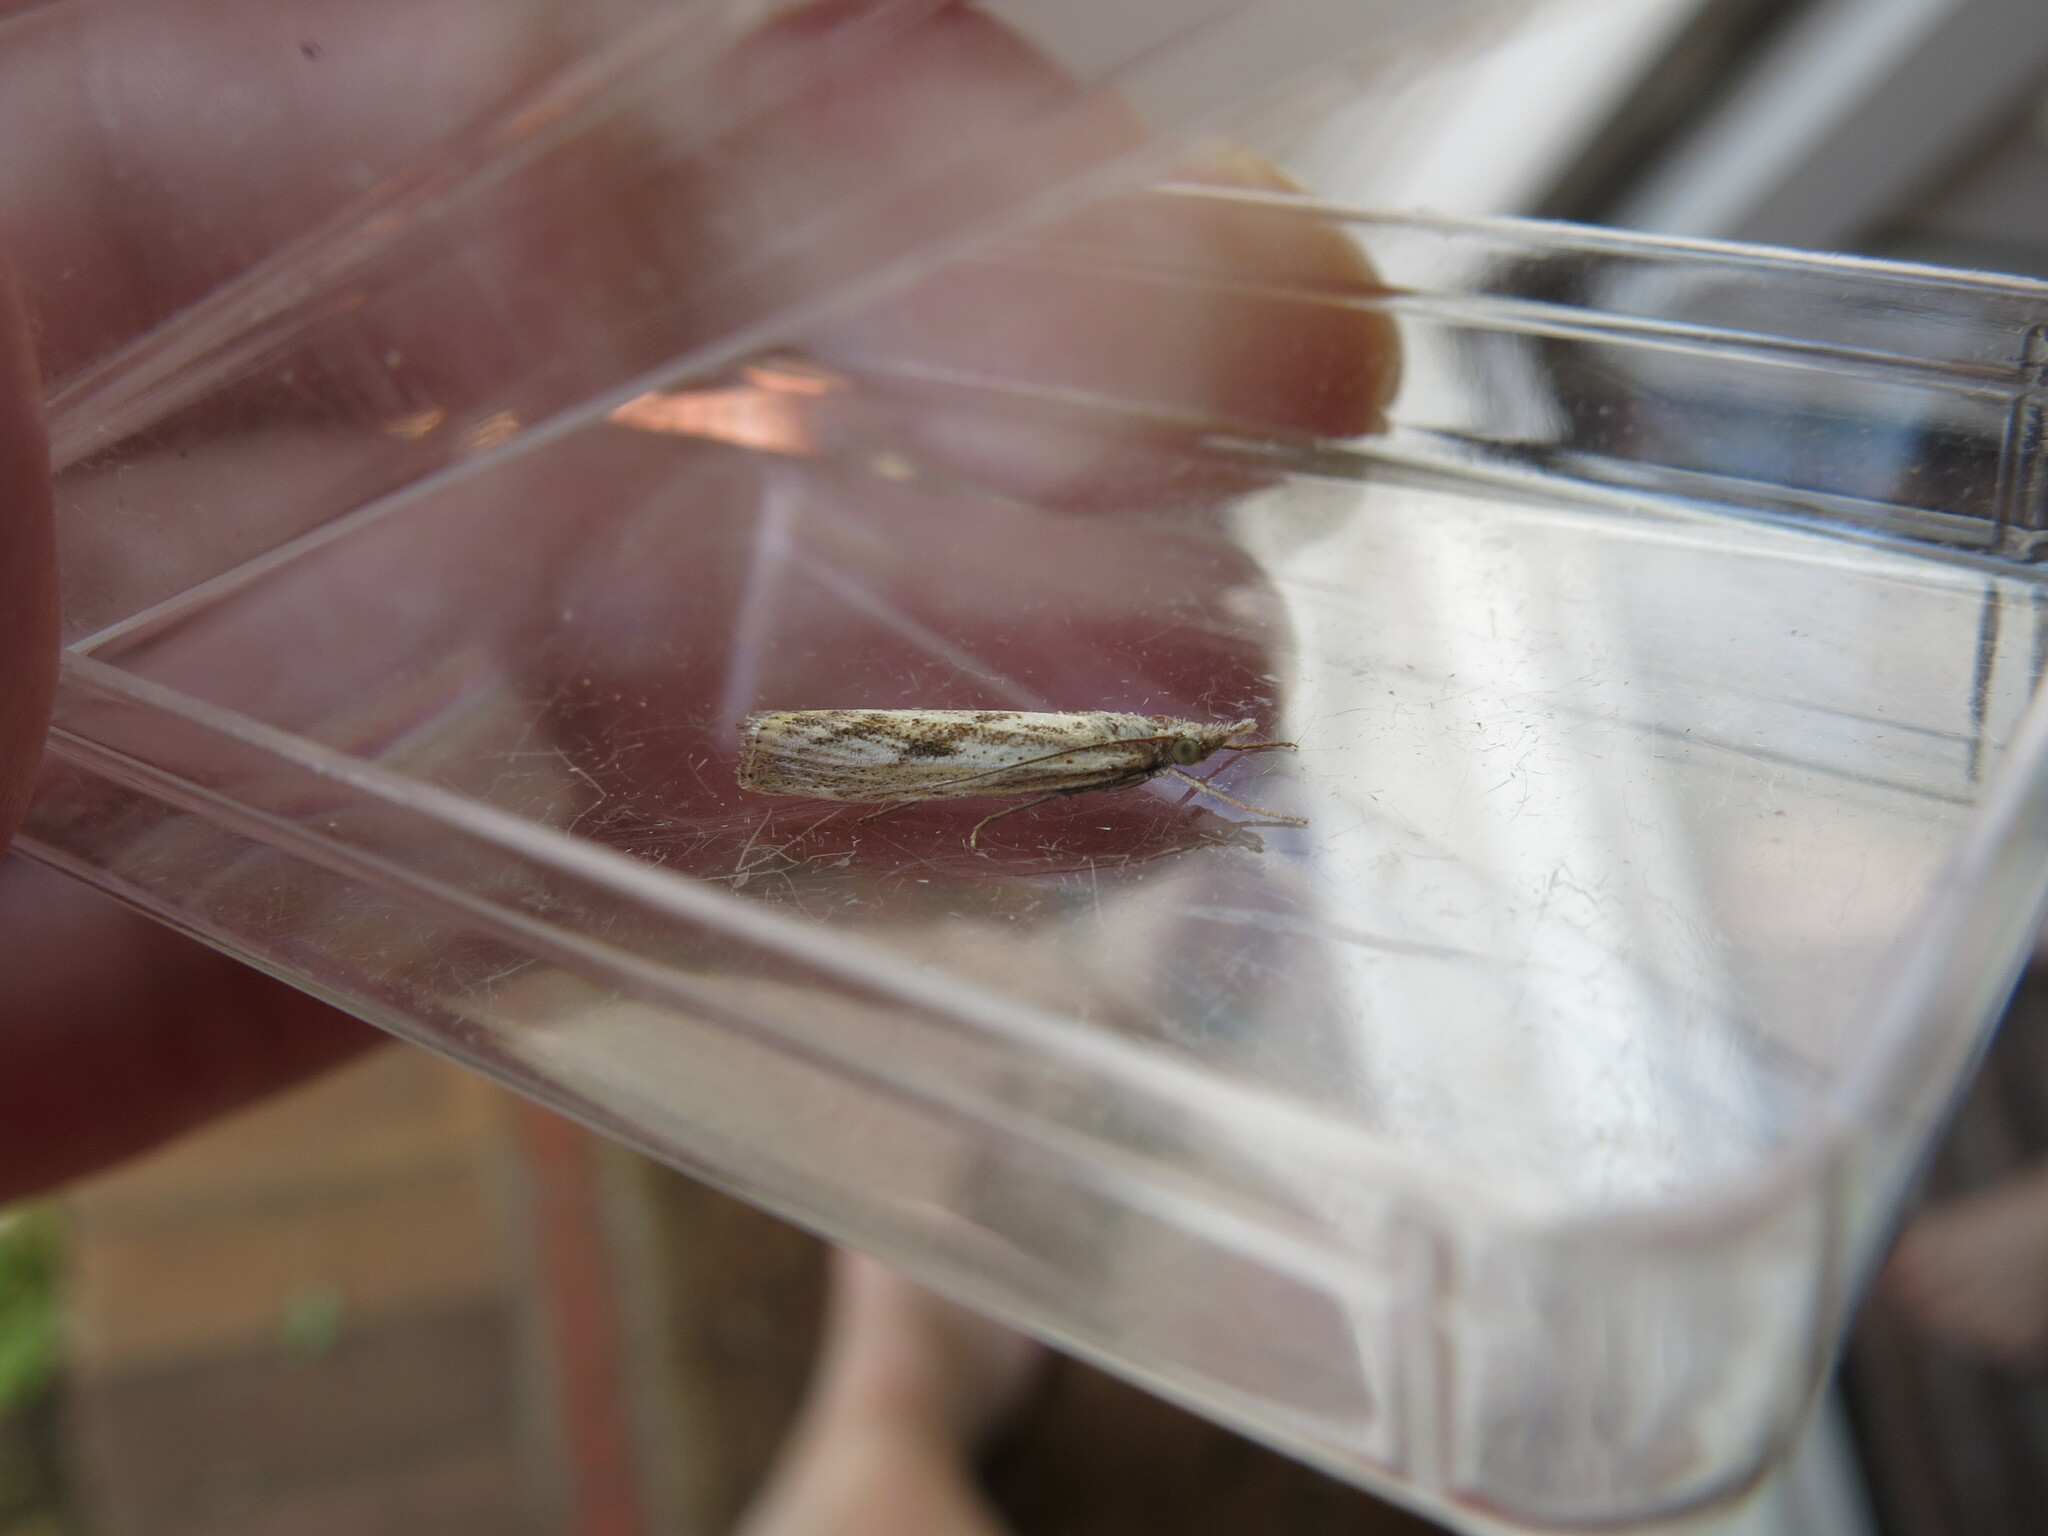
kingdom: Animalia
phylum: Arthropoda
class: Insecta
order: Lepidoptera
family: Crambidae
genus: Agriphila
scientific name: Agriphila inquinatella
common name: Barred grass-veneer
